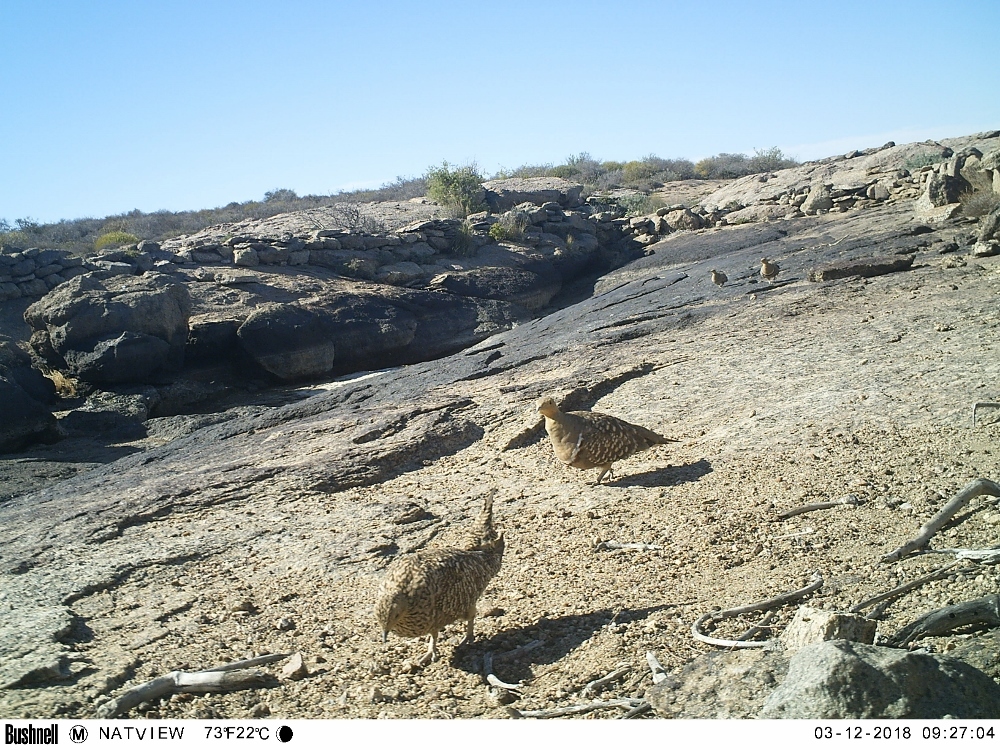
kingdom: Animalia
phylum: Chordata
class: Aves
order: Pteroclidiformes
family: Pteroclididae
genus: Pterocles
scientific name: Pterocles namaqua
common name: Namaqua sandgrouse
